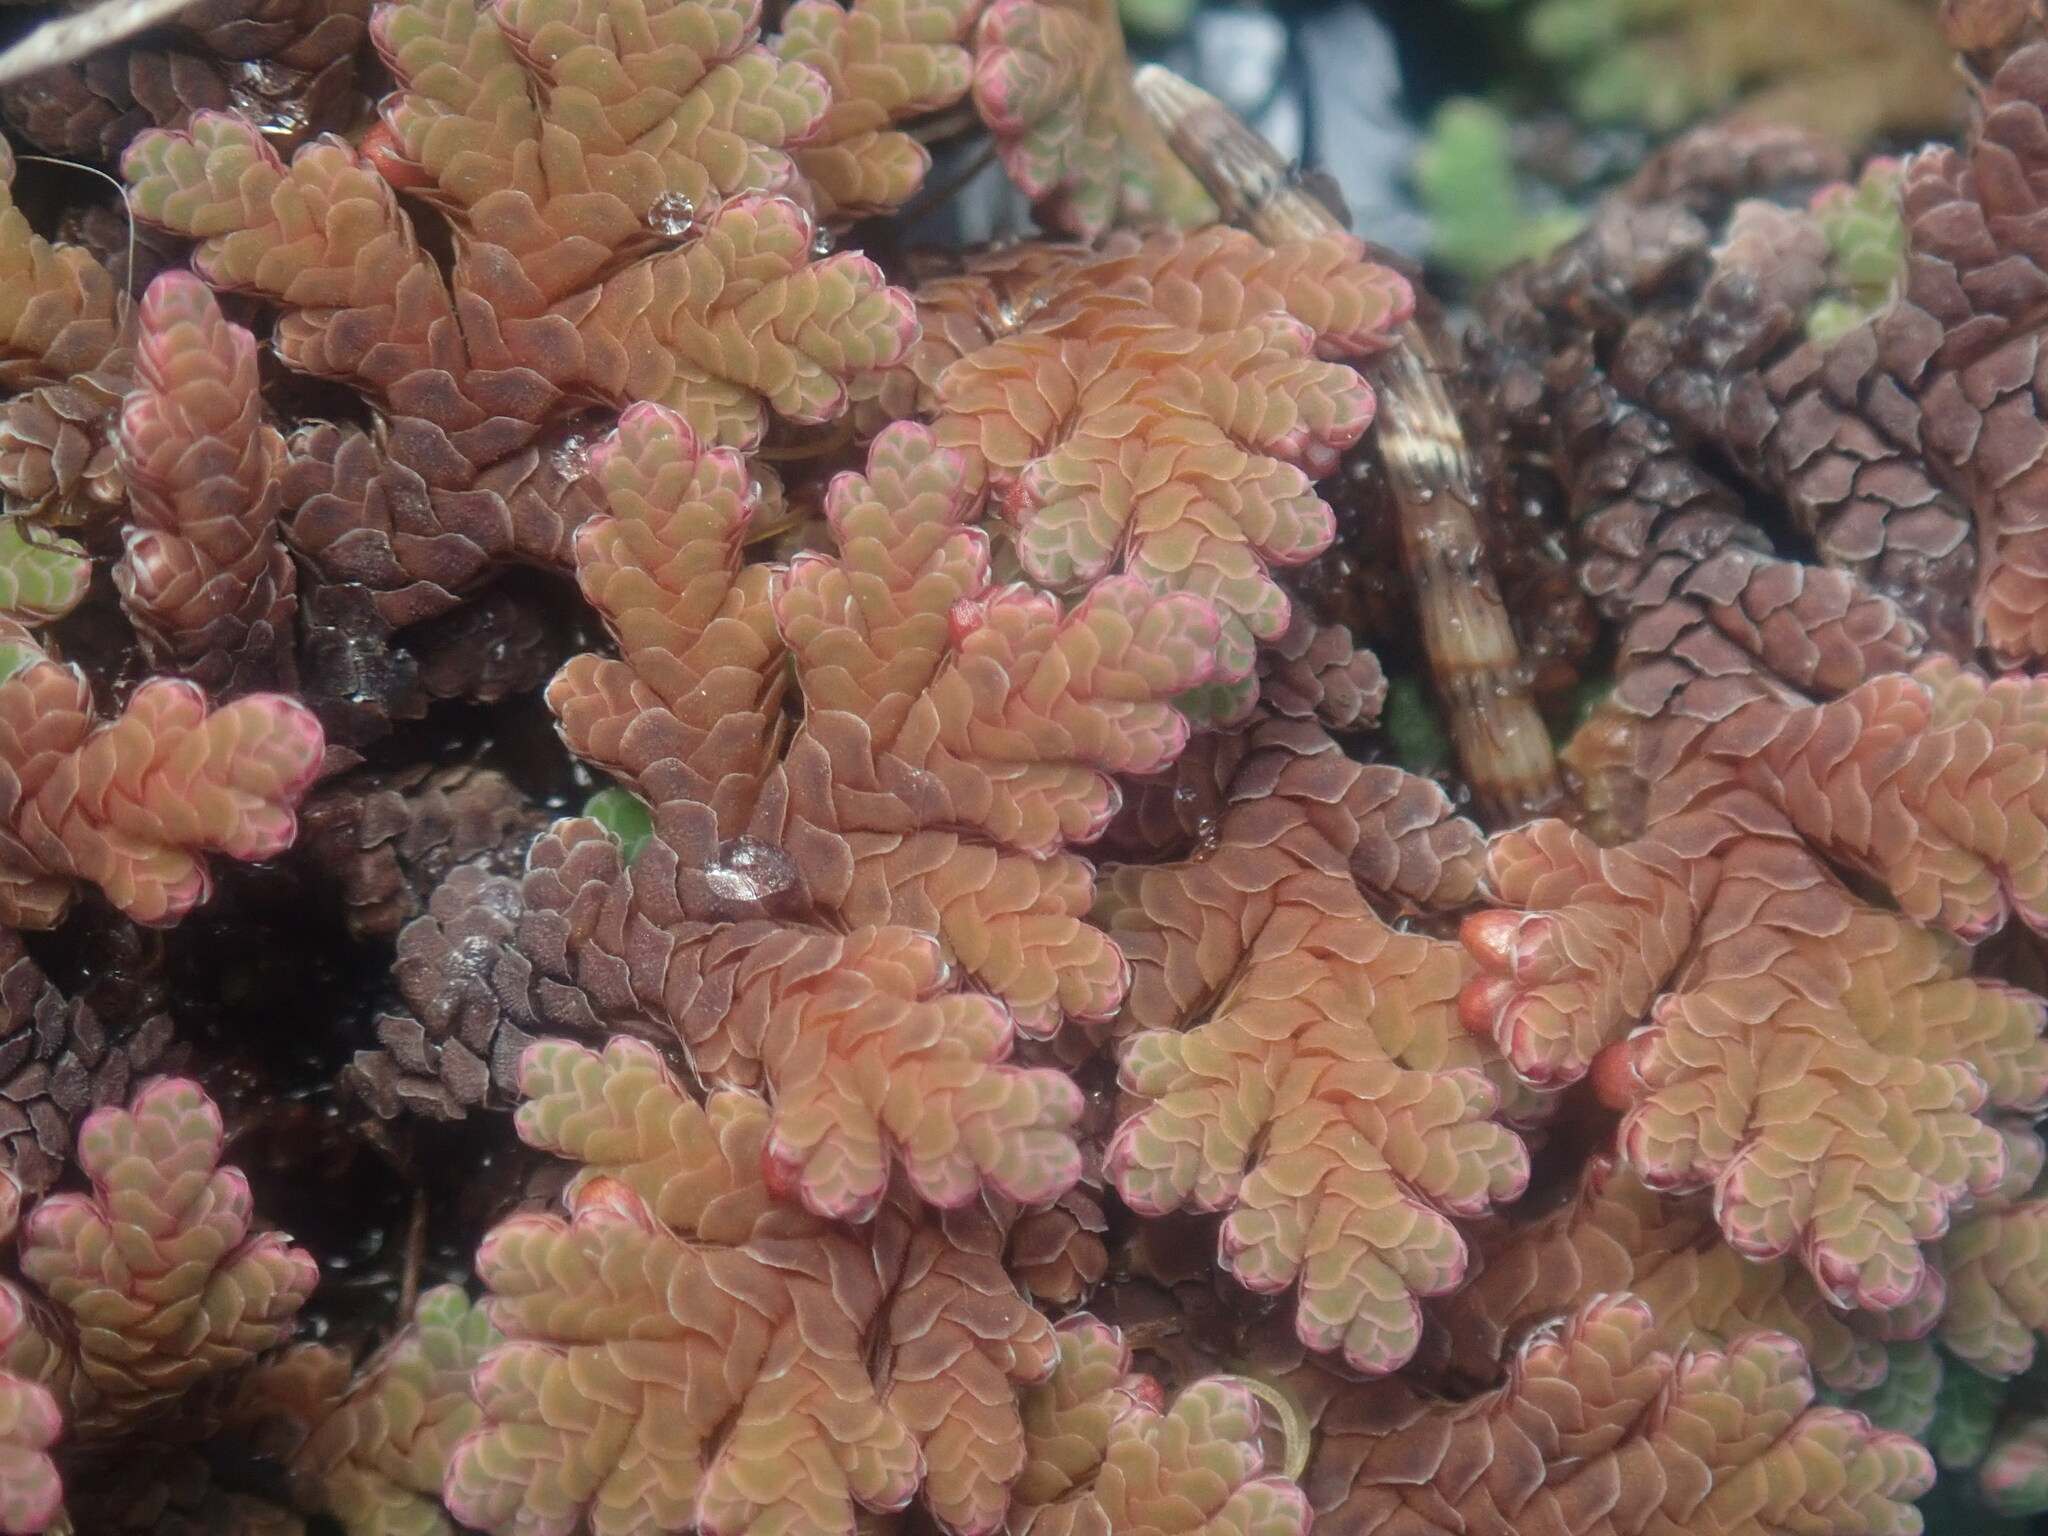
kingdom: Plantae
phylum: Tracheophyta
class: Polypodiopsida
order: Salviniales
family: Salviniaceae
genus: Azolla
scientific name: Azolla rubra
